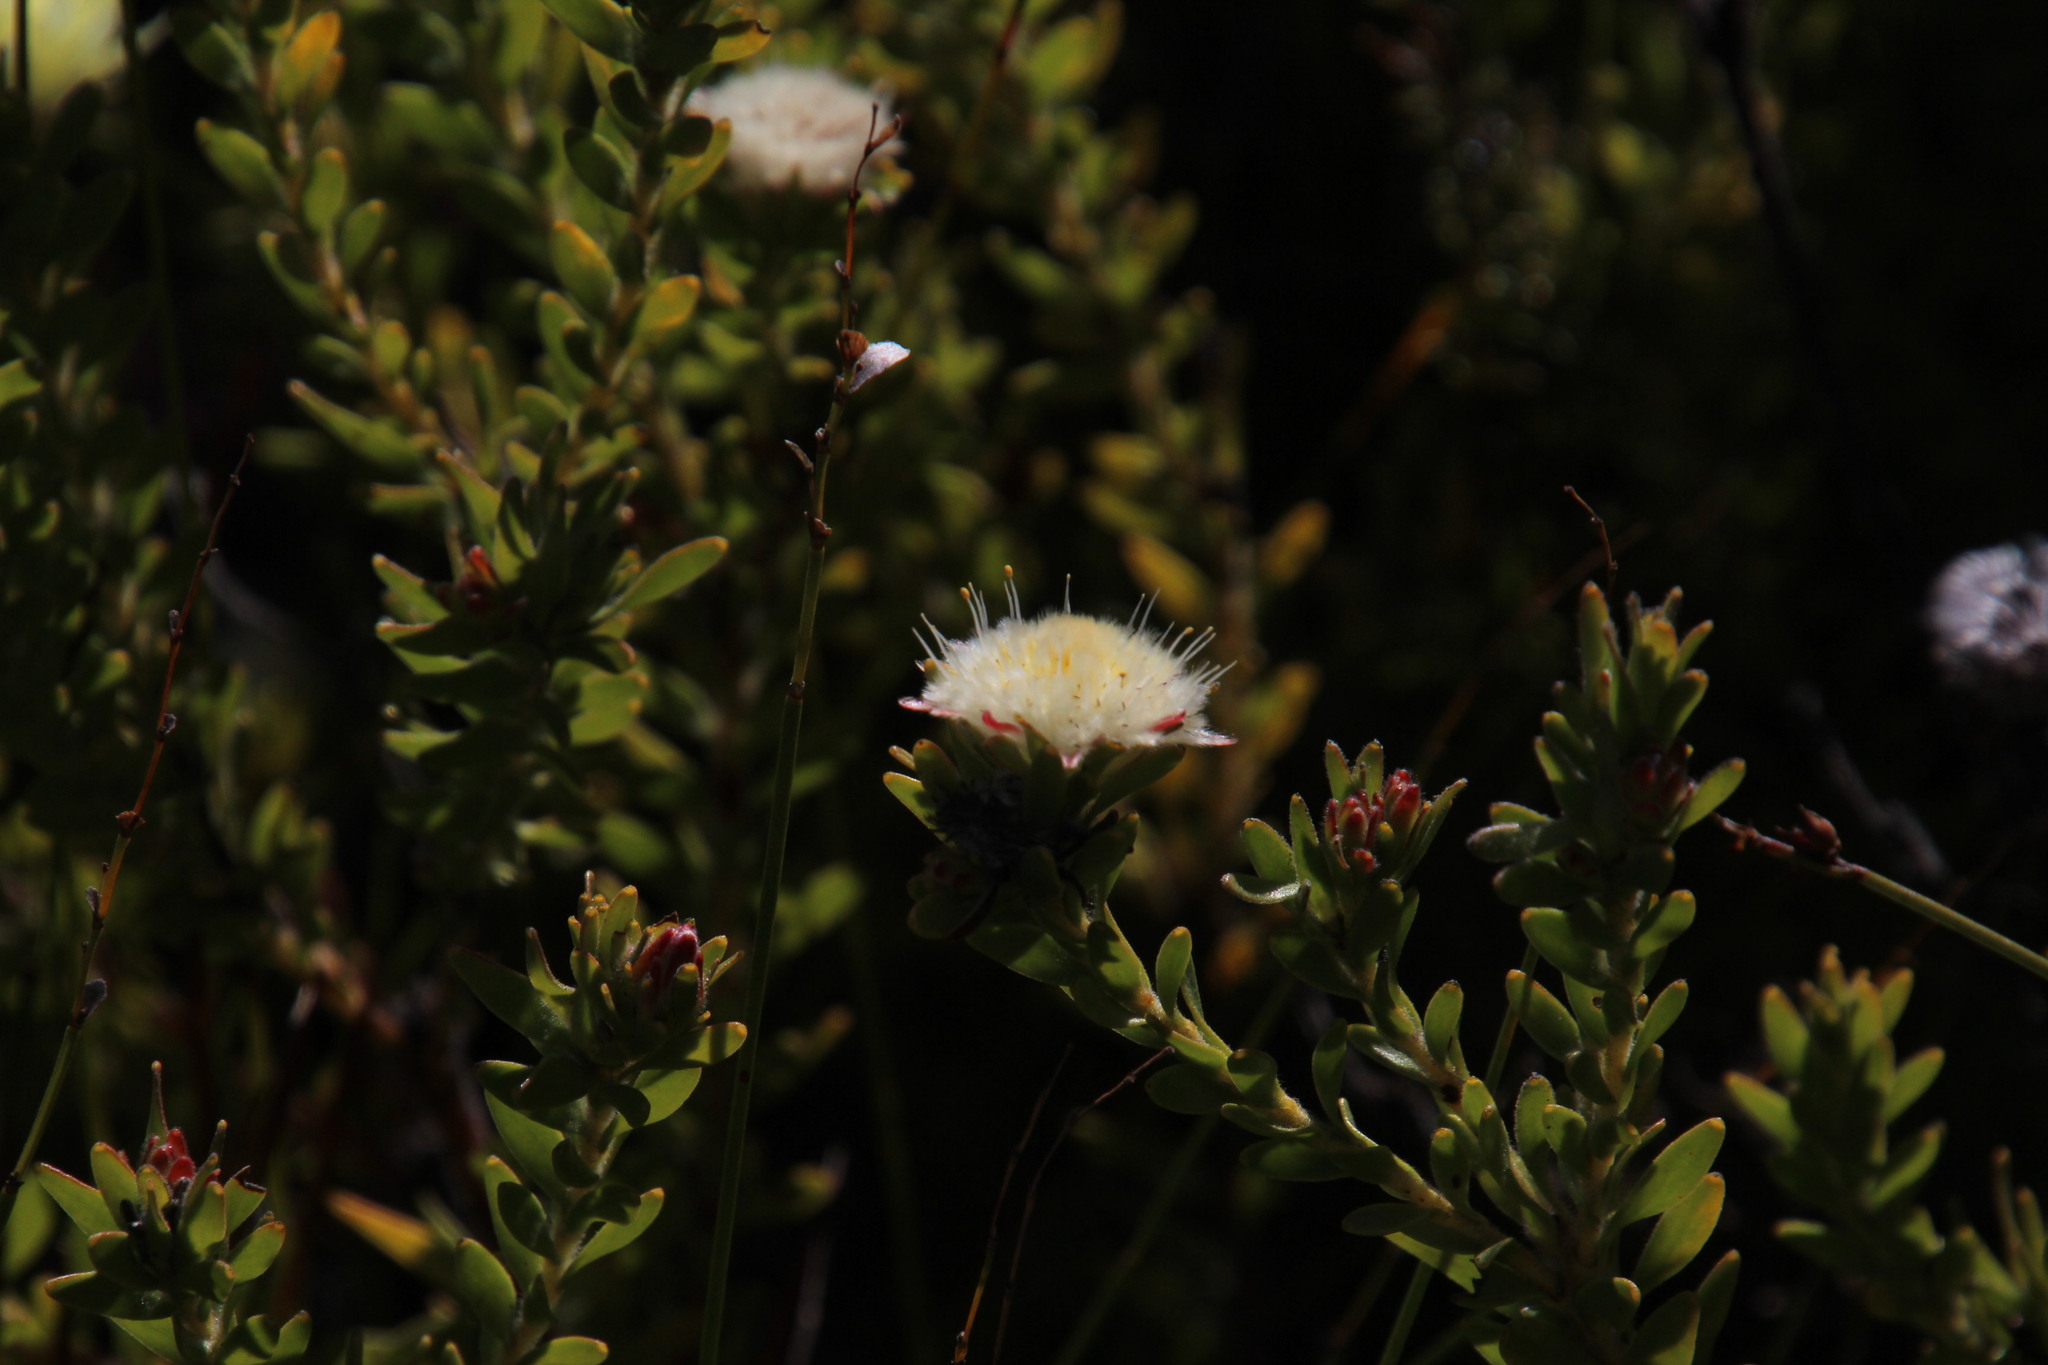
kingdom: Plantae
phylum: Tracheophyta
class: Magnoliopsida
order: Proteales
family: Proteaceae
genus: Diastella
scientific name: Diastella fraterna
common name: Palmiet silkypuff
